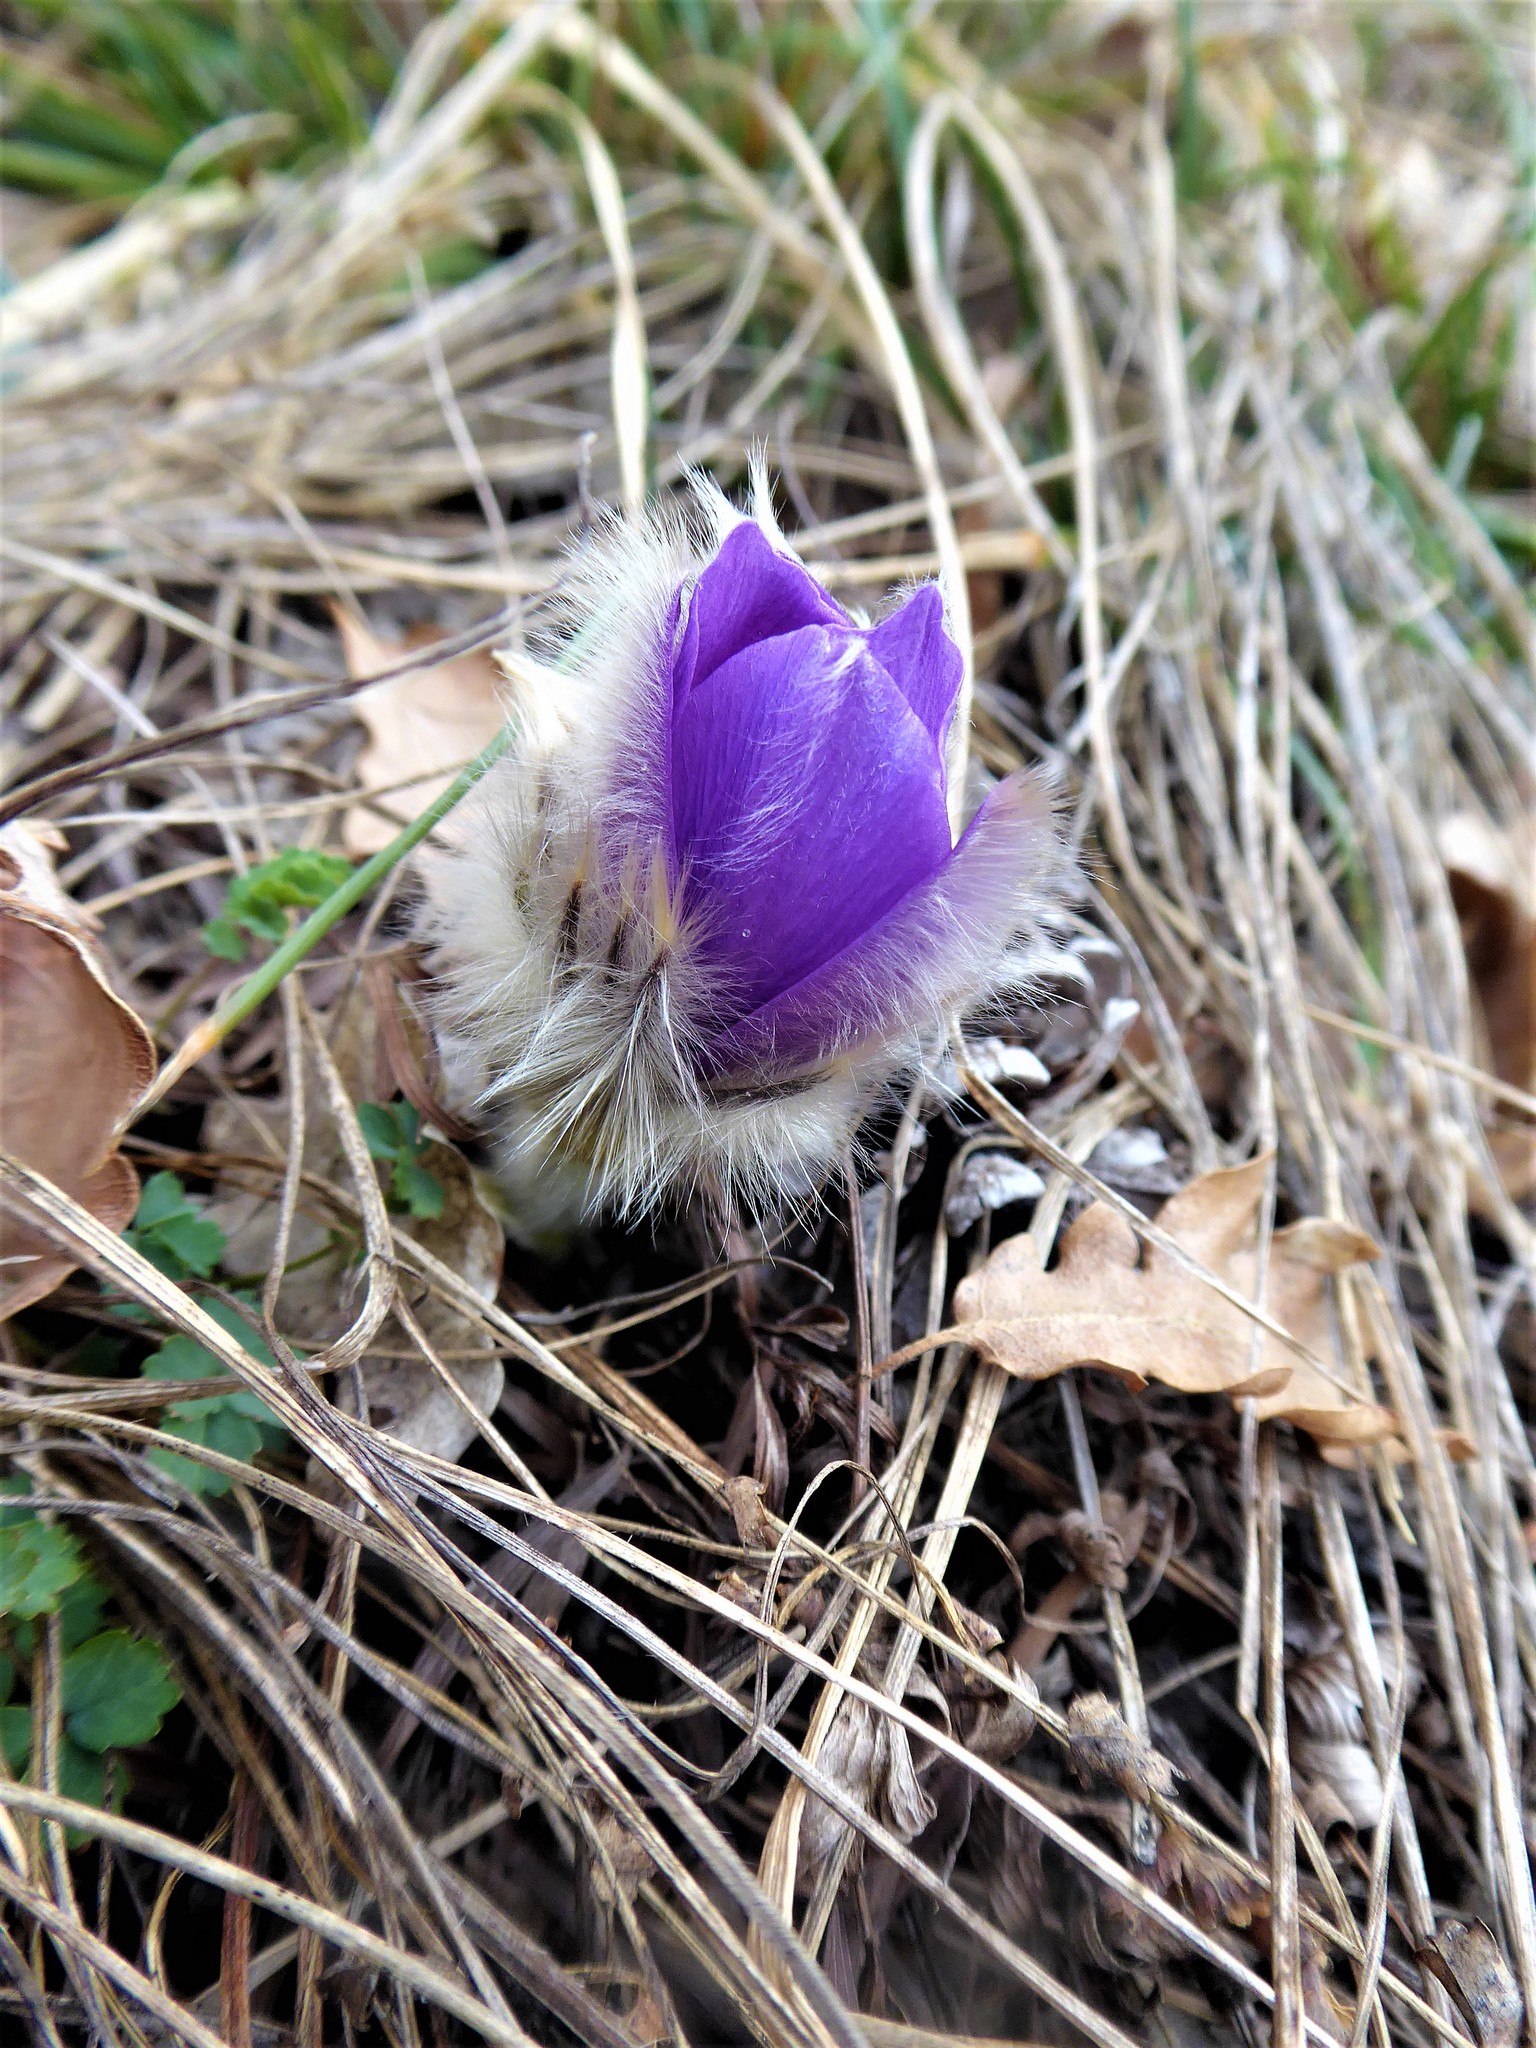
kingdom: Plantae
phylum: Tracheophyta
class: Magnoliopsida
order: Ranunculales
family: Ranunculaceae
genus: Pulsatilla
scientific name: Pulsatilla grandis
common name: Greater pasque flower
